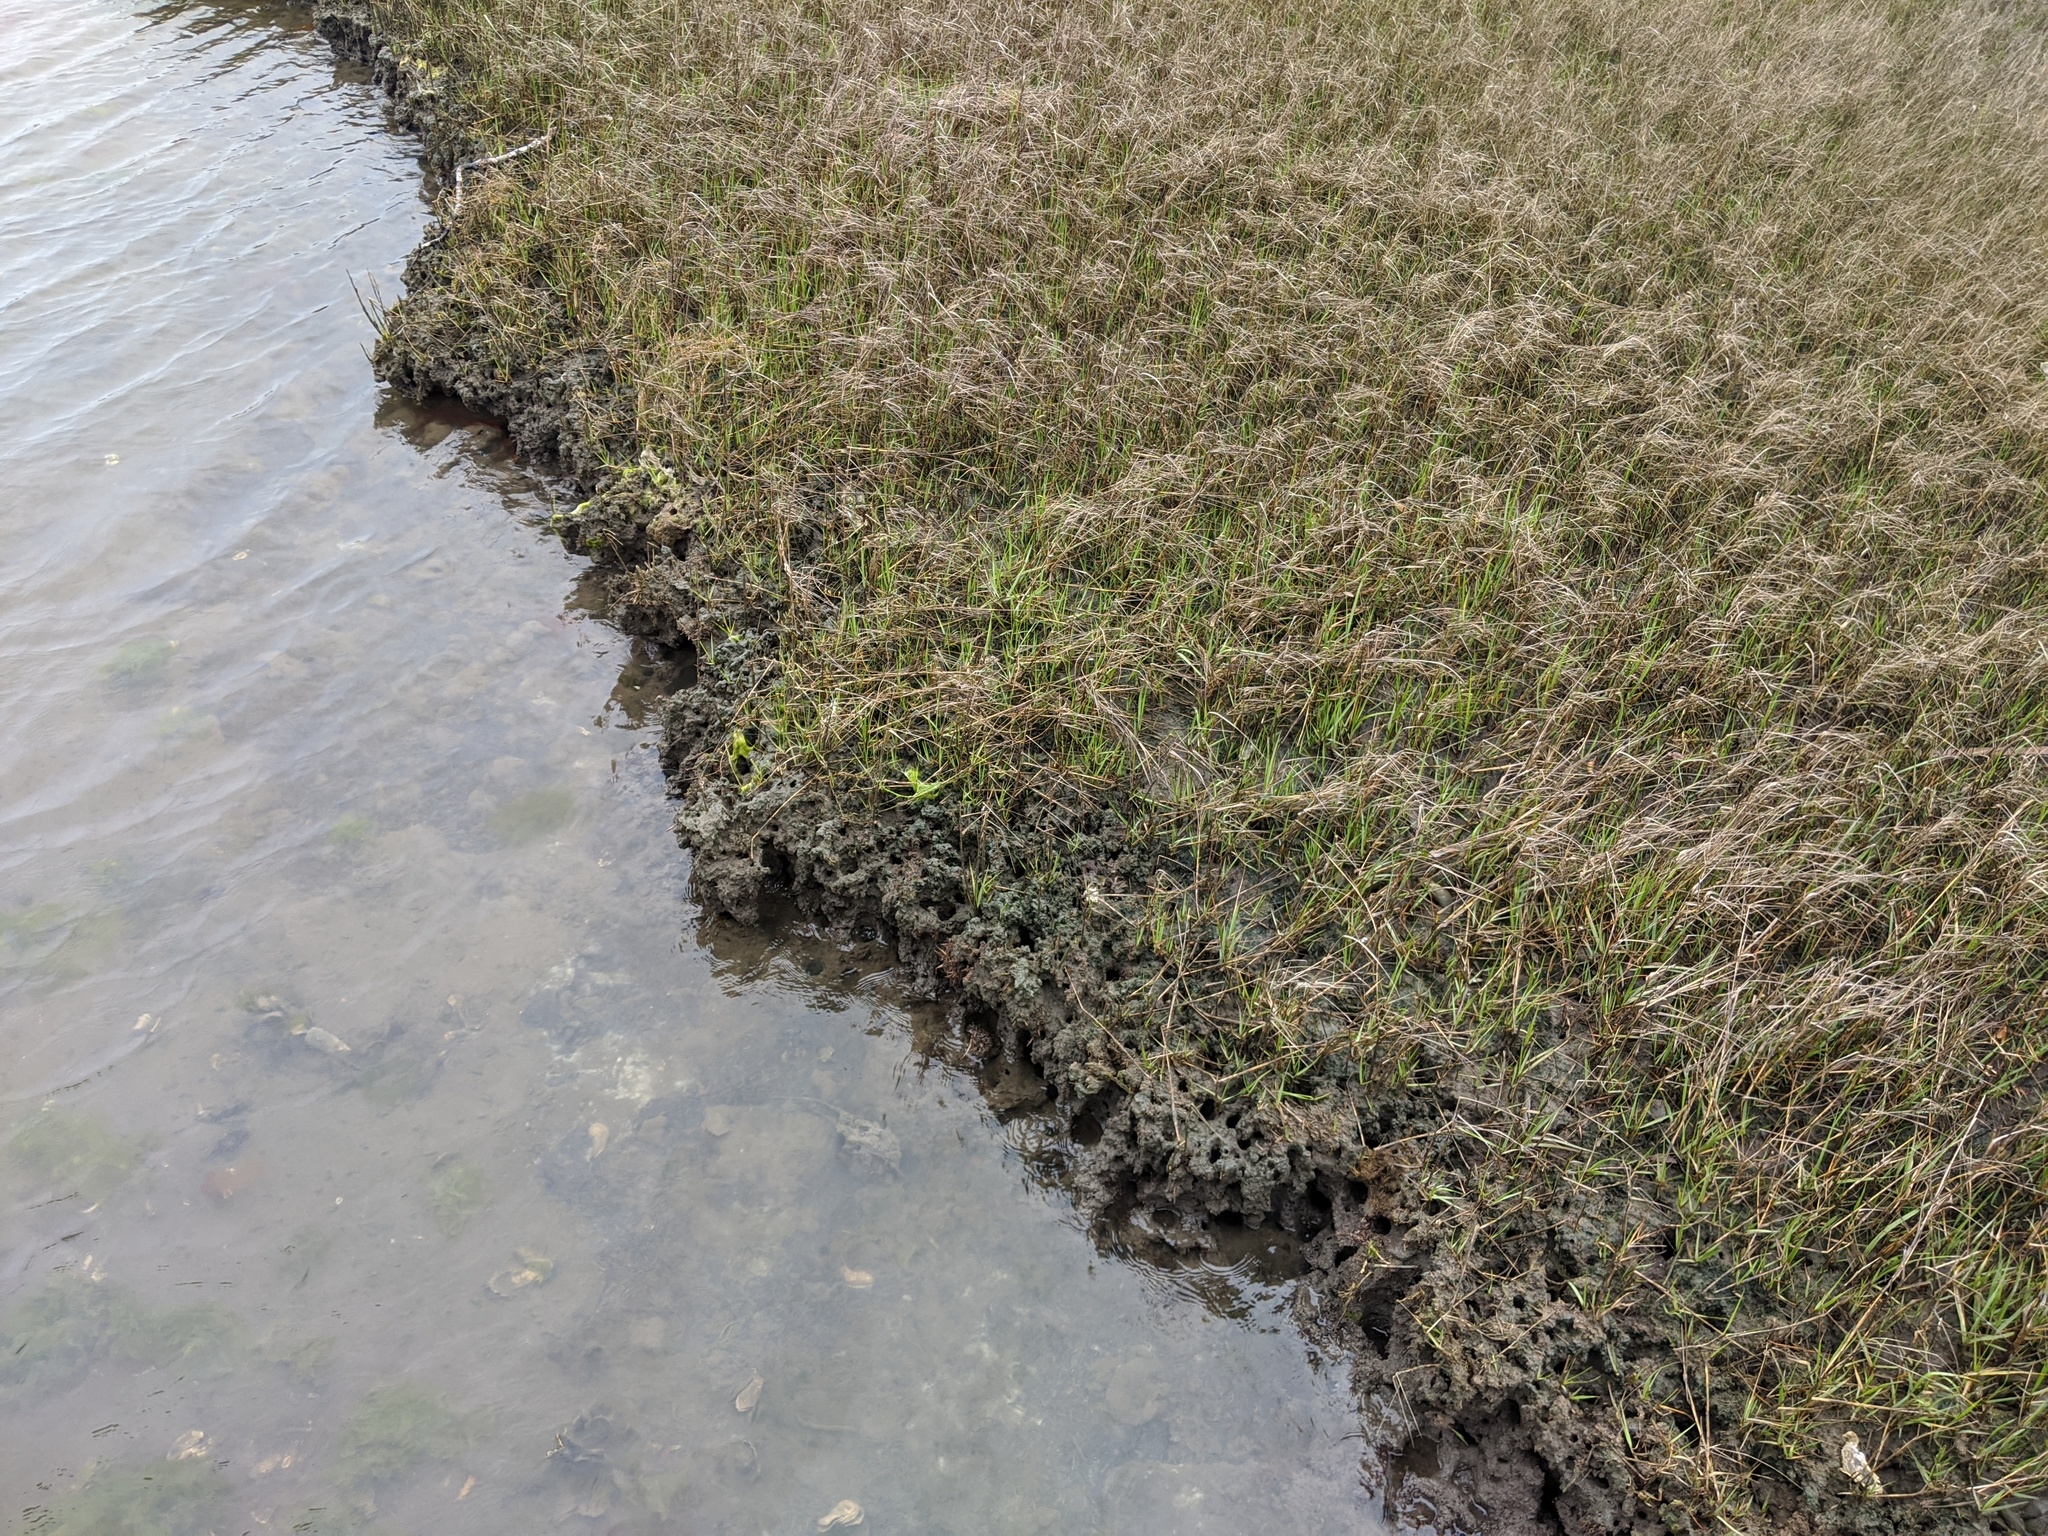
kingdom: Plantae
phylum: Tracheophyta
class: Liliopsida
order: Poales
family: Poaceae
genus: Sporobolus
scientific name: Sporobolus alterniflorus
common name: Atlantic cordgrass
